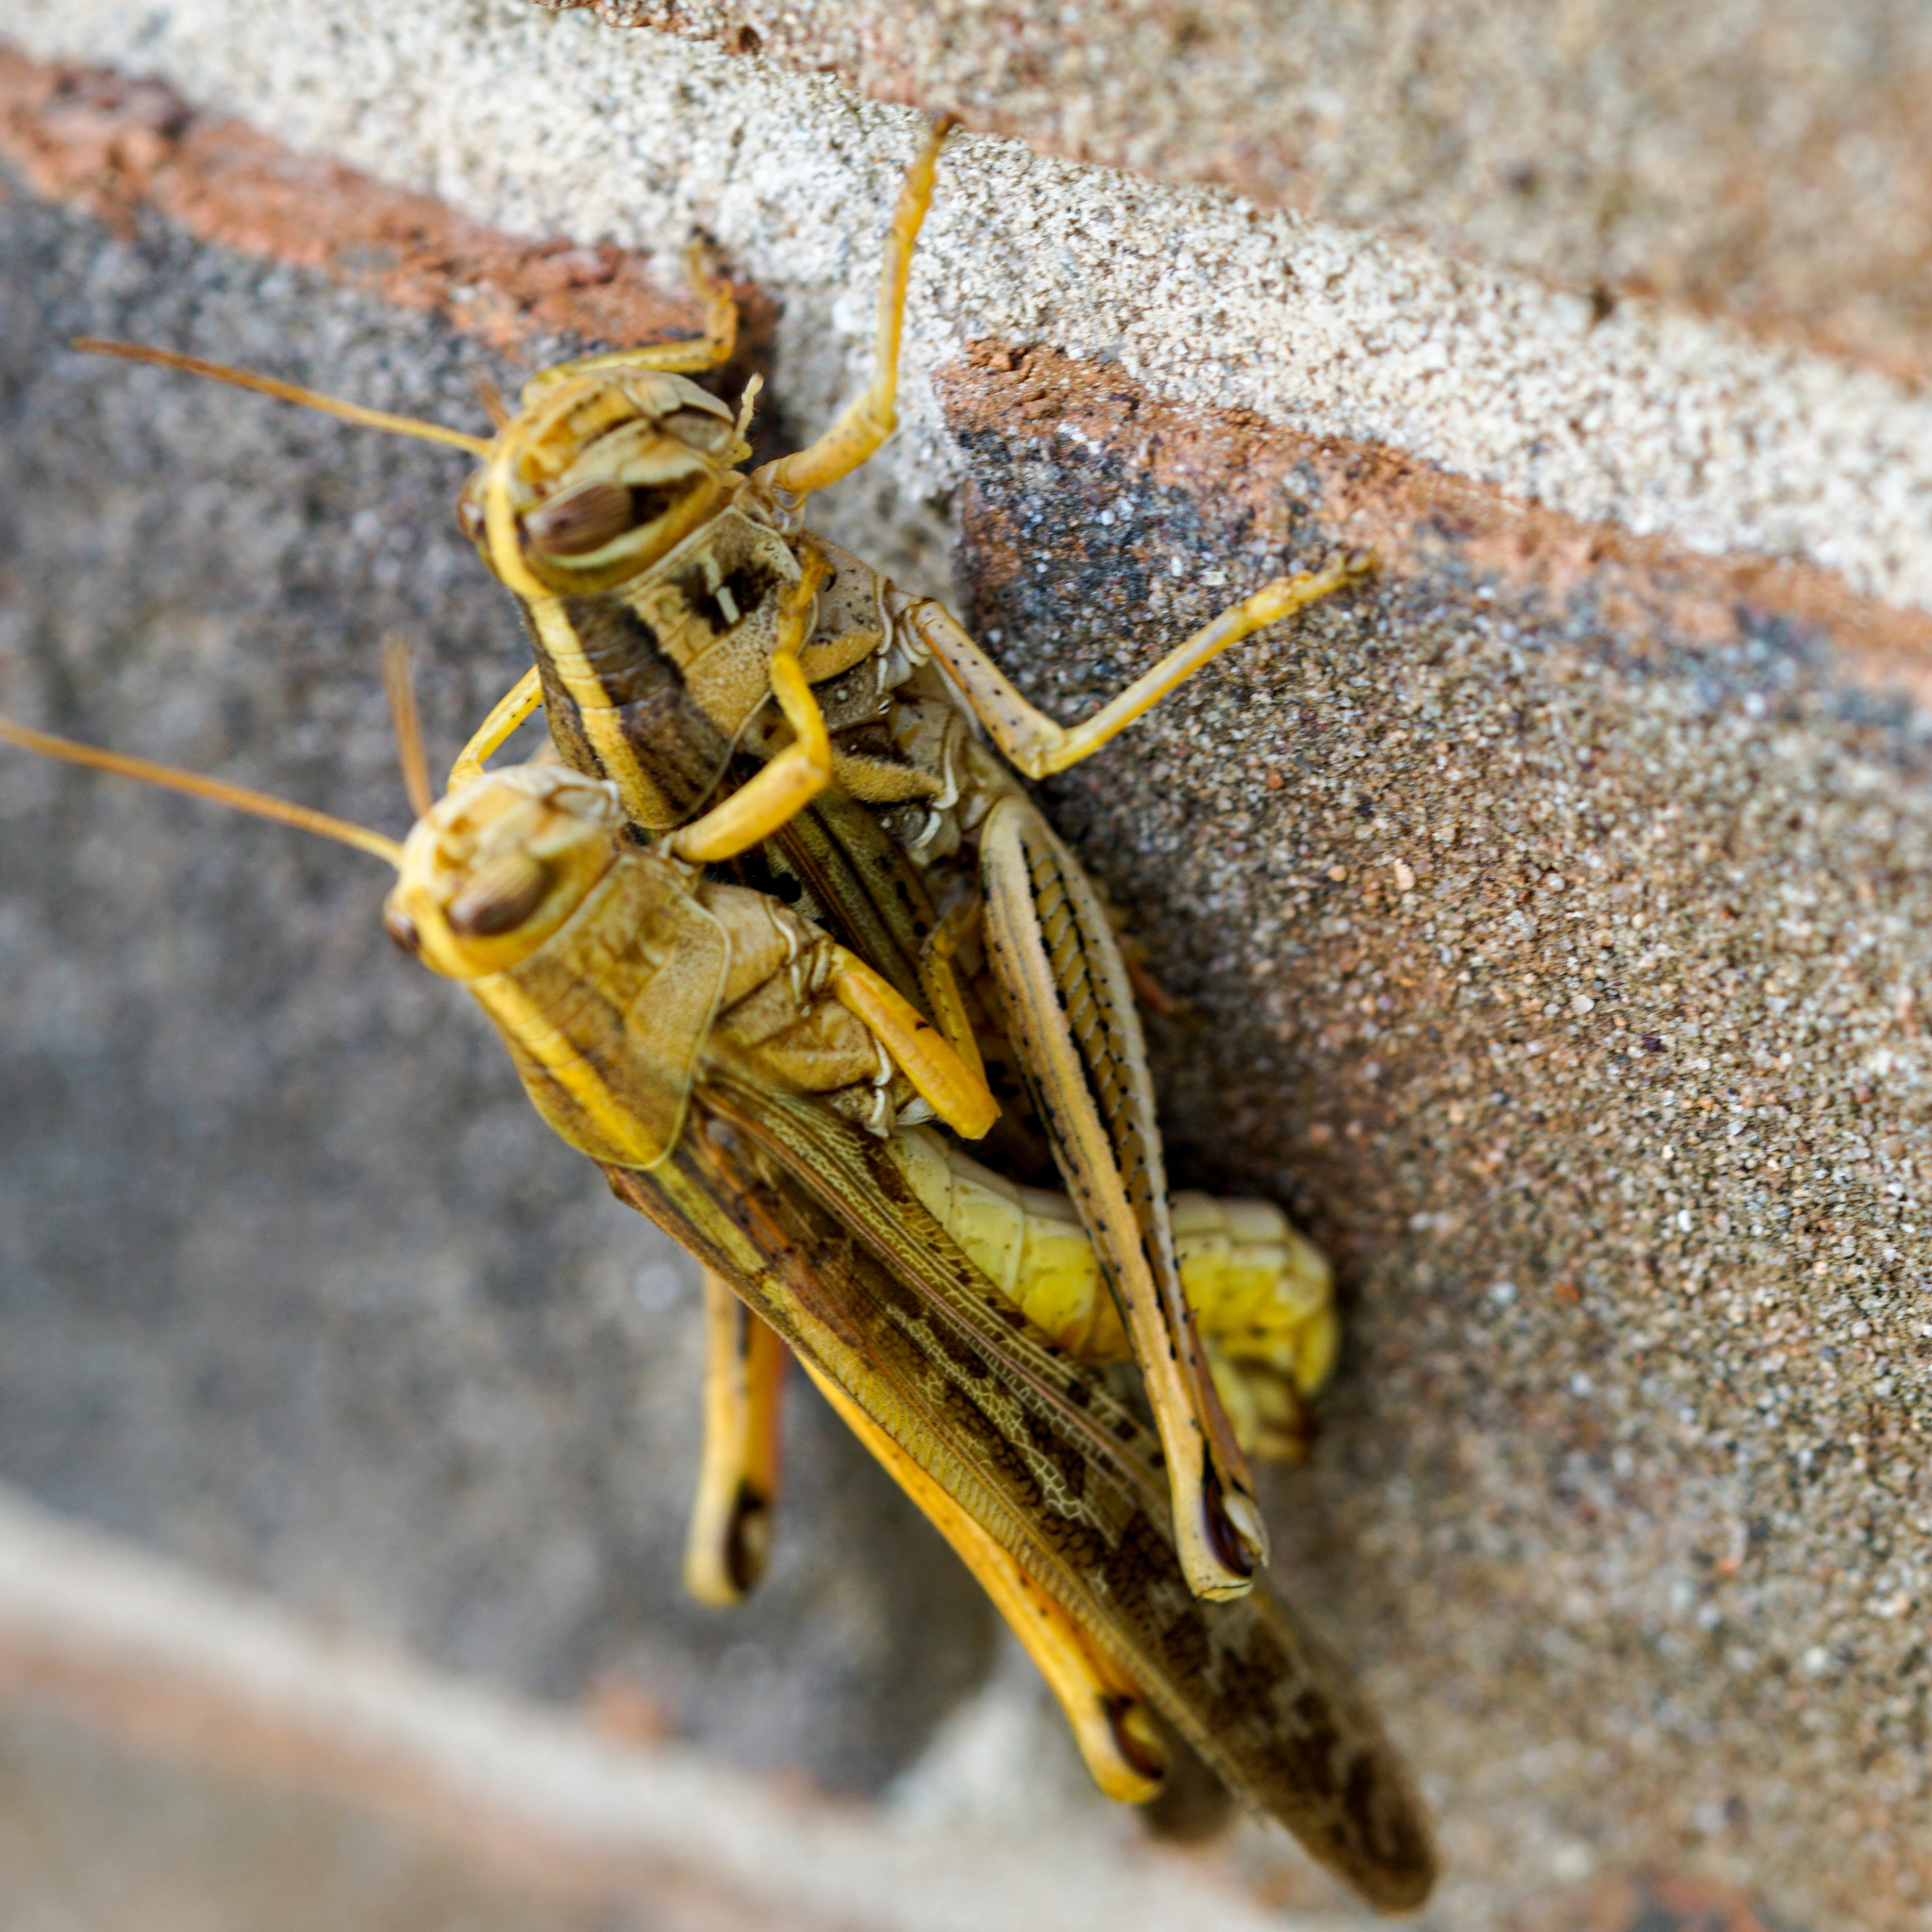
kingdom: Animalia
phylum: Arthropoda
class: Insecta
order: Orthoptera
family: Acrididae
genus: Schistocerca
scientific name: Schistocerca americana
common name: American bird locust
